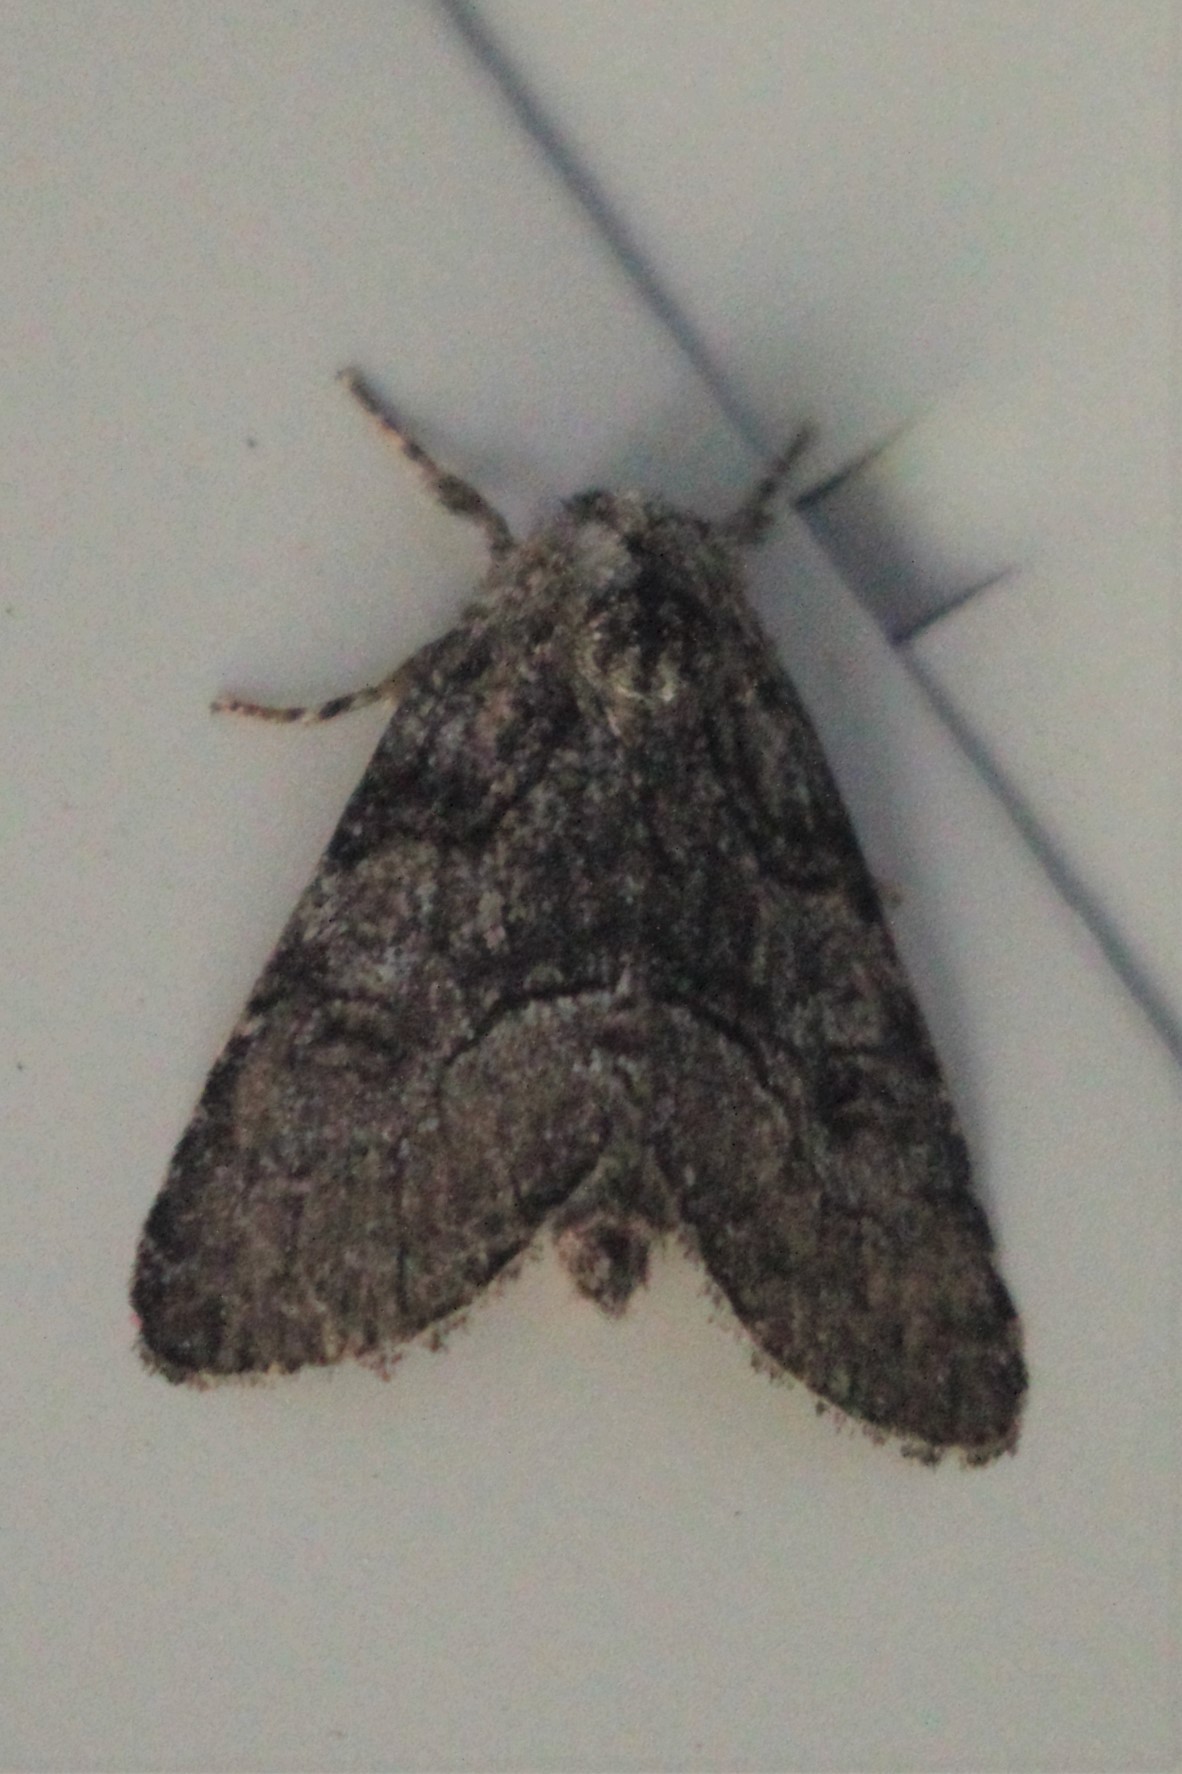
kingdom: Animalia
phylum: Arthropoda
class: Insecta
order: Lepidoptera
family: Noctuidae
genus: Raphia
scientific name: Raphia frater
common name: Brother
